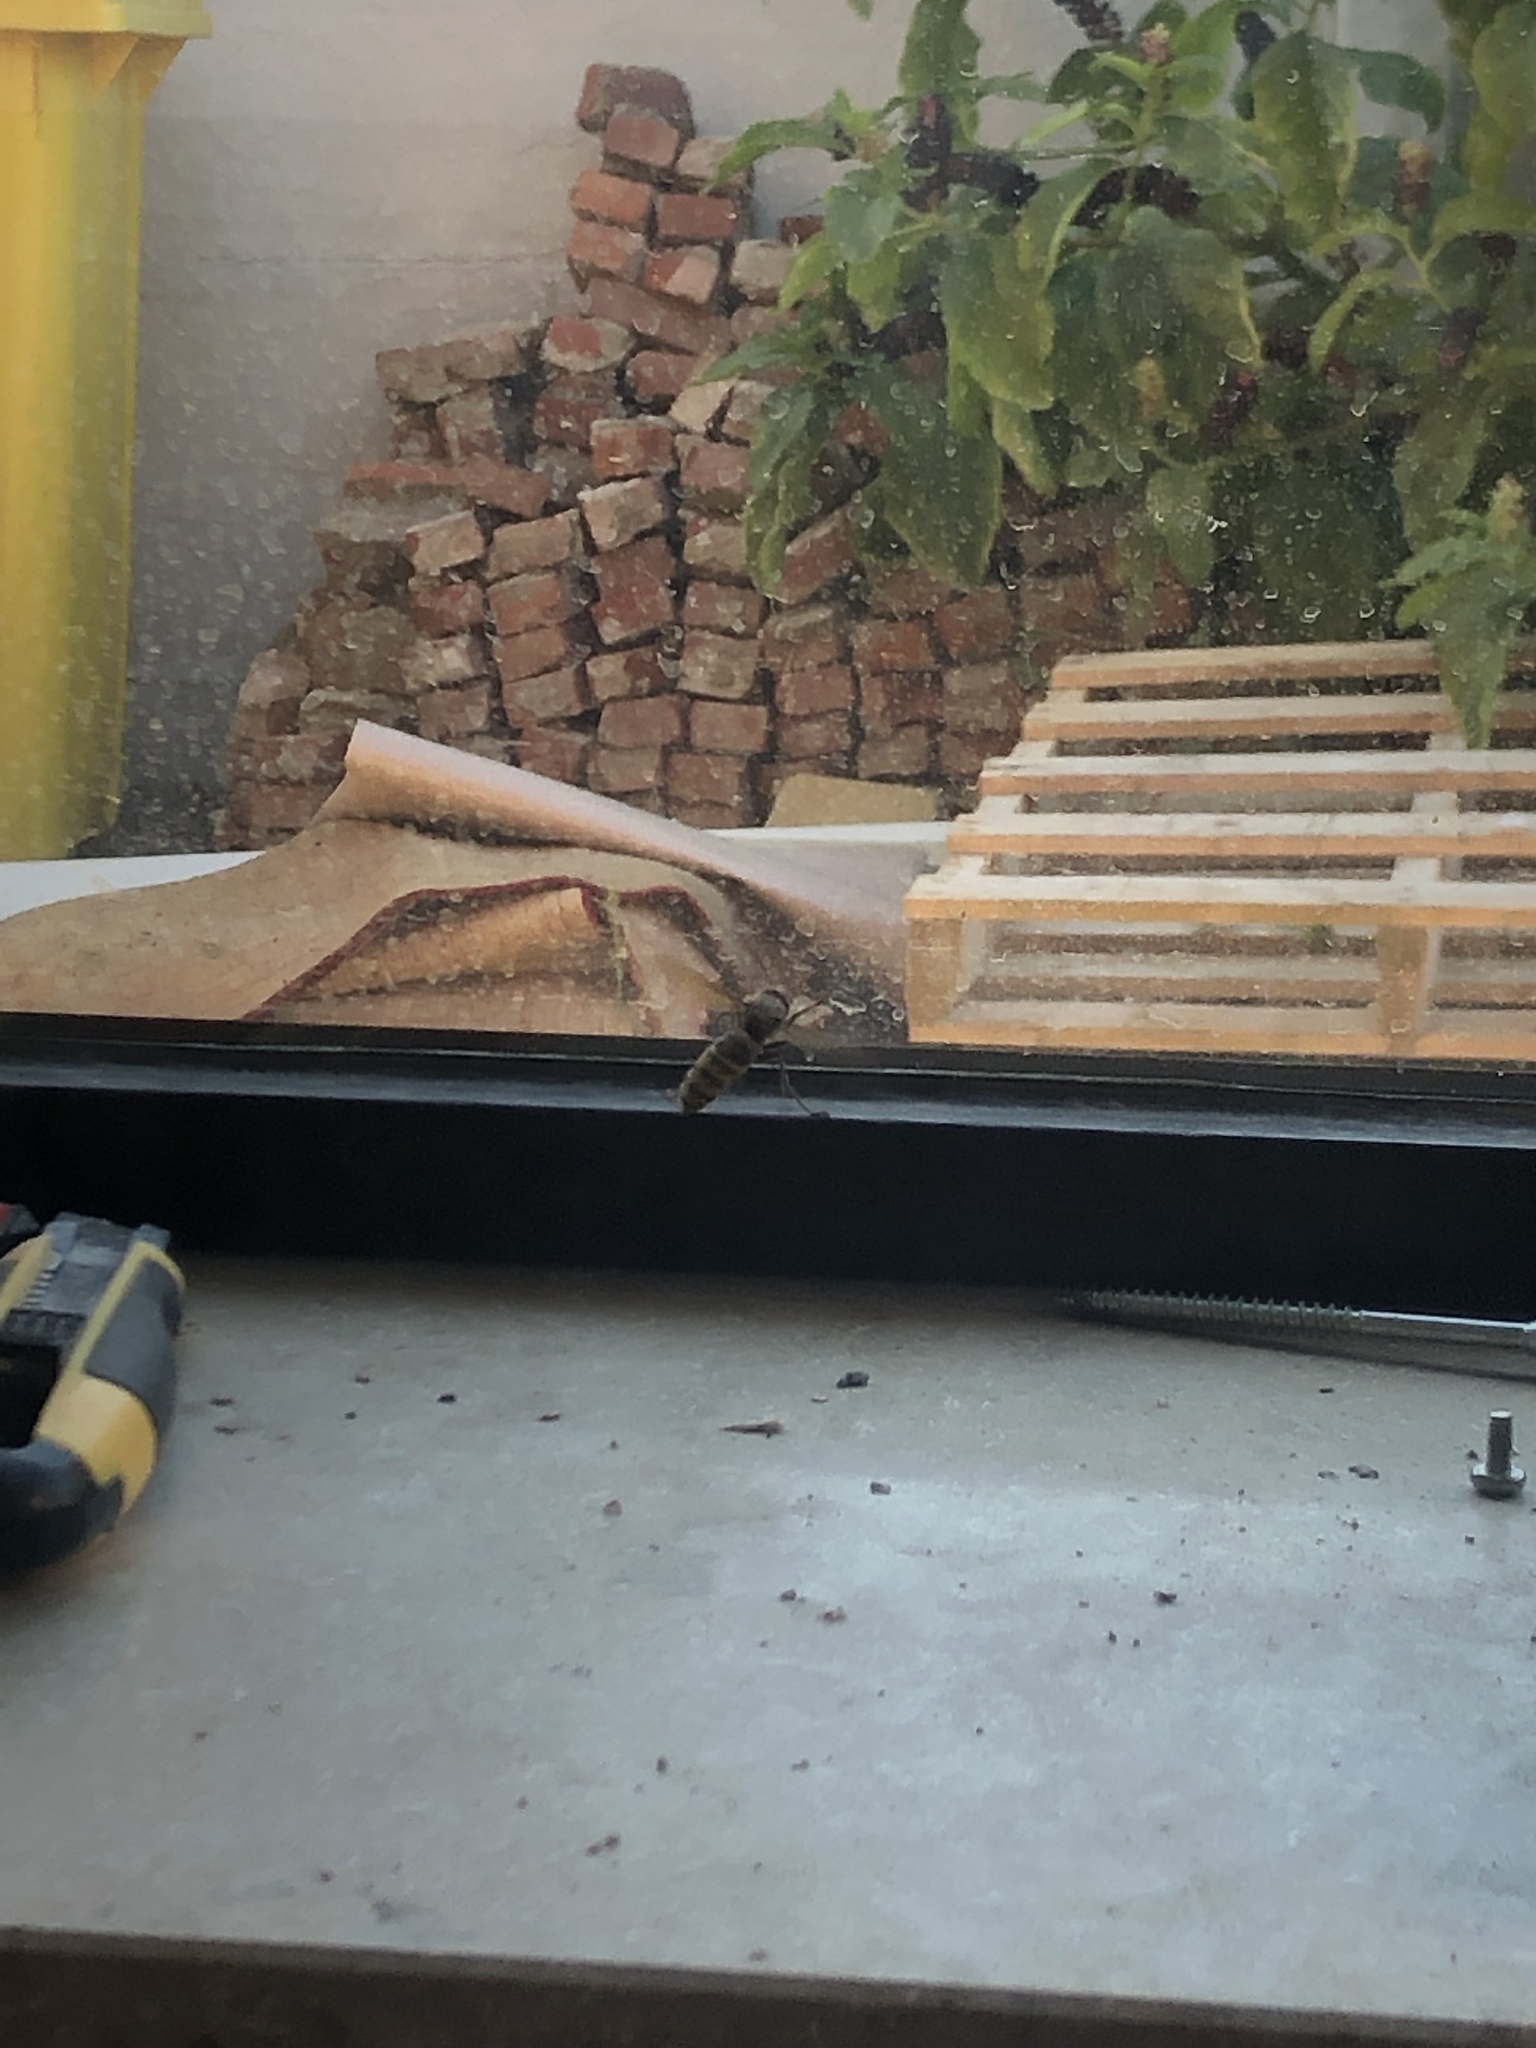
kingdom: Animalia
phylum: Arthropoda
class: Insecta
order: Hymenoptera
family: Vespidae
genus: Vespa
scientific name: Vespa crabro
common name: Hornet
